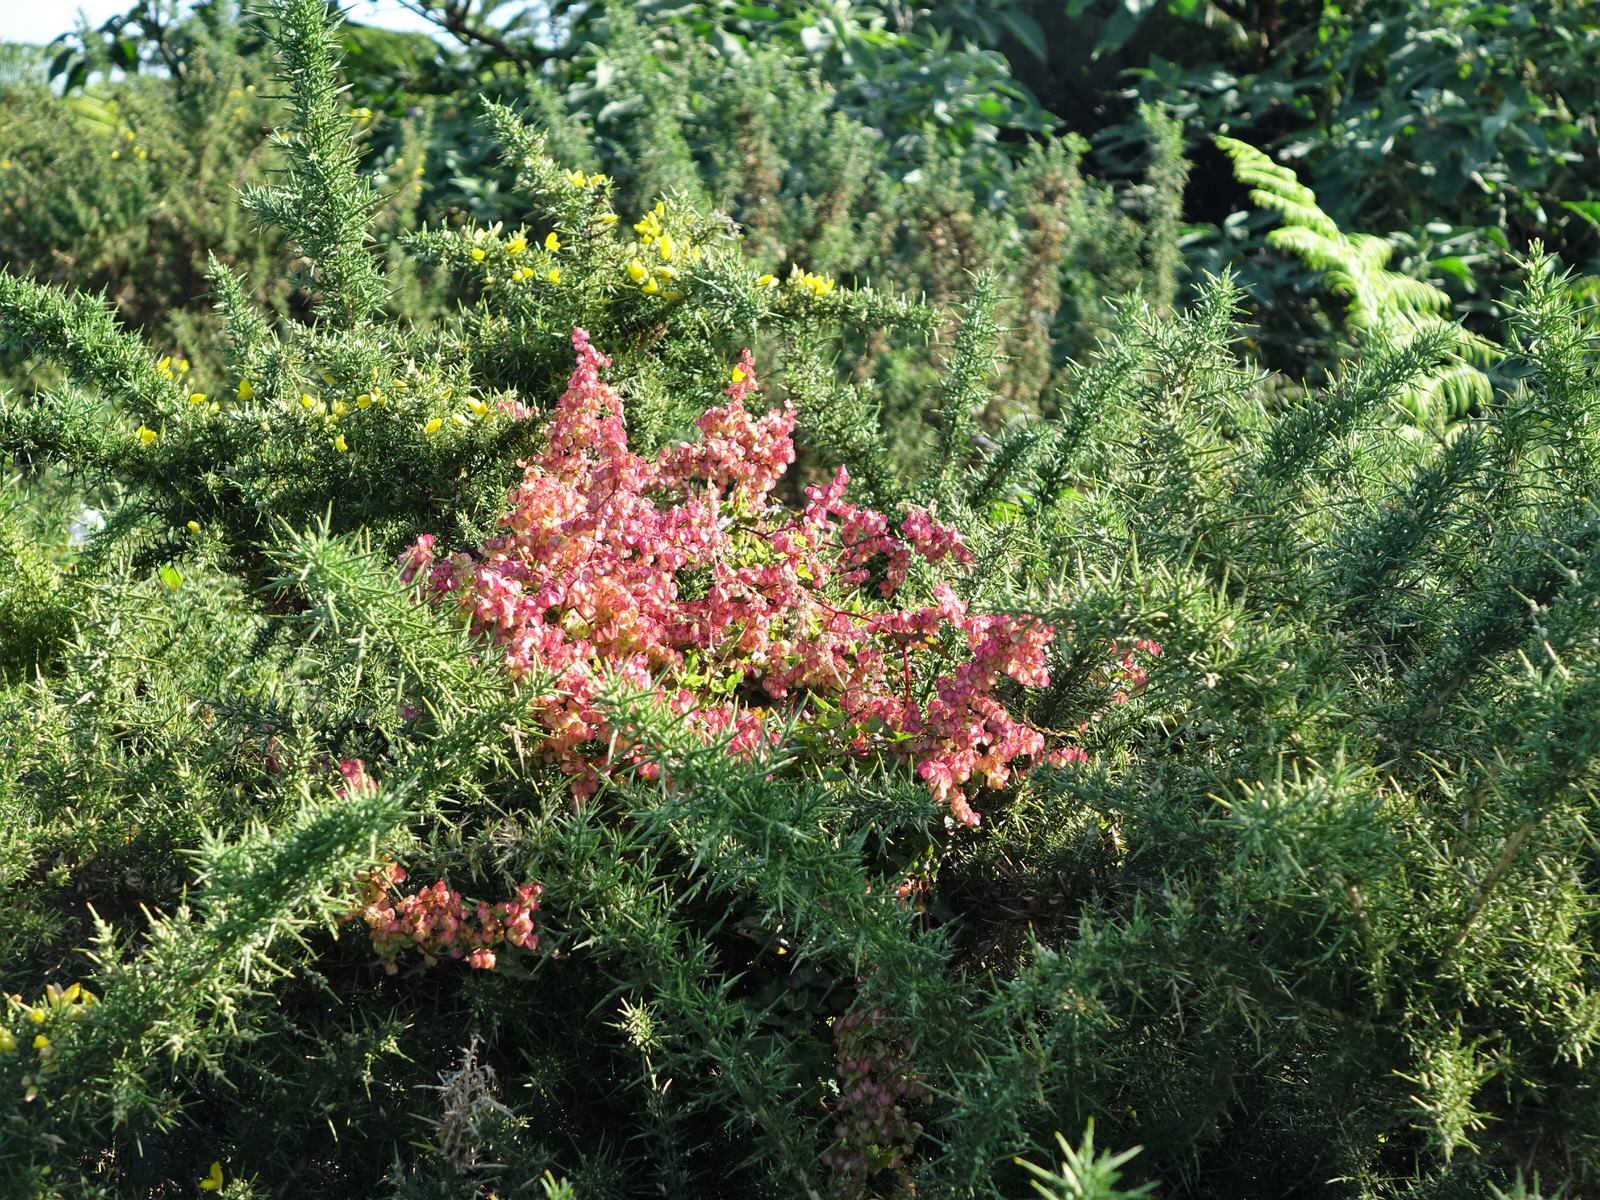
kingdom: Plantae
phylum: Tracheophyta
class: Magnoliopsida
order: Caryophyllales
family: Polygonaceae
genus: Rumex
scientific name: Rumex sagittatus
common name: Climbing dock
